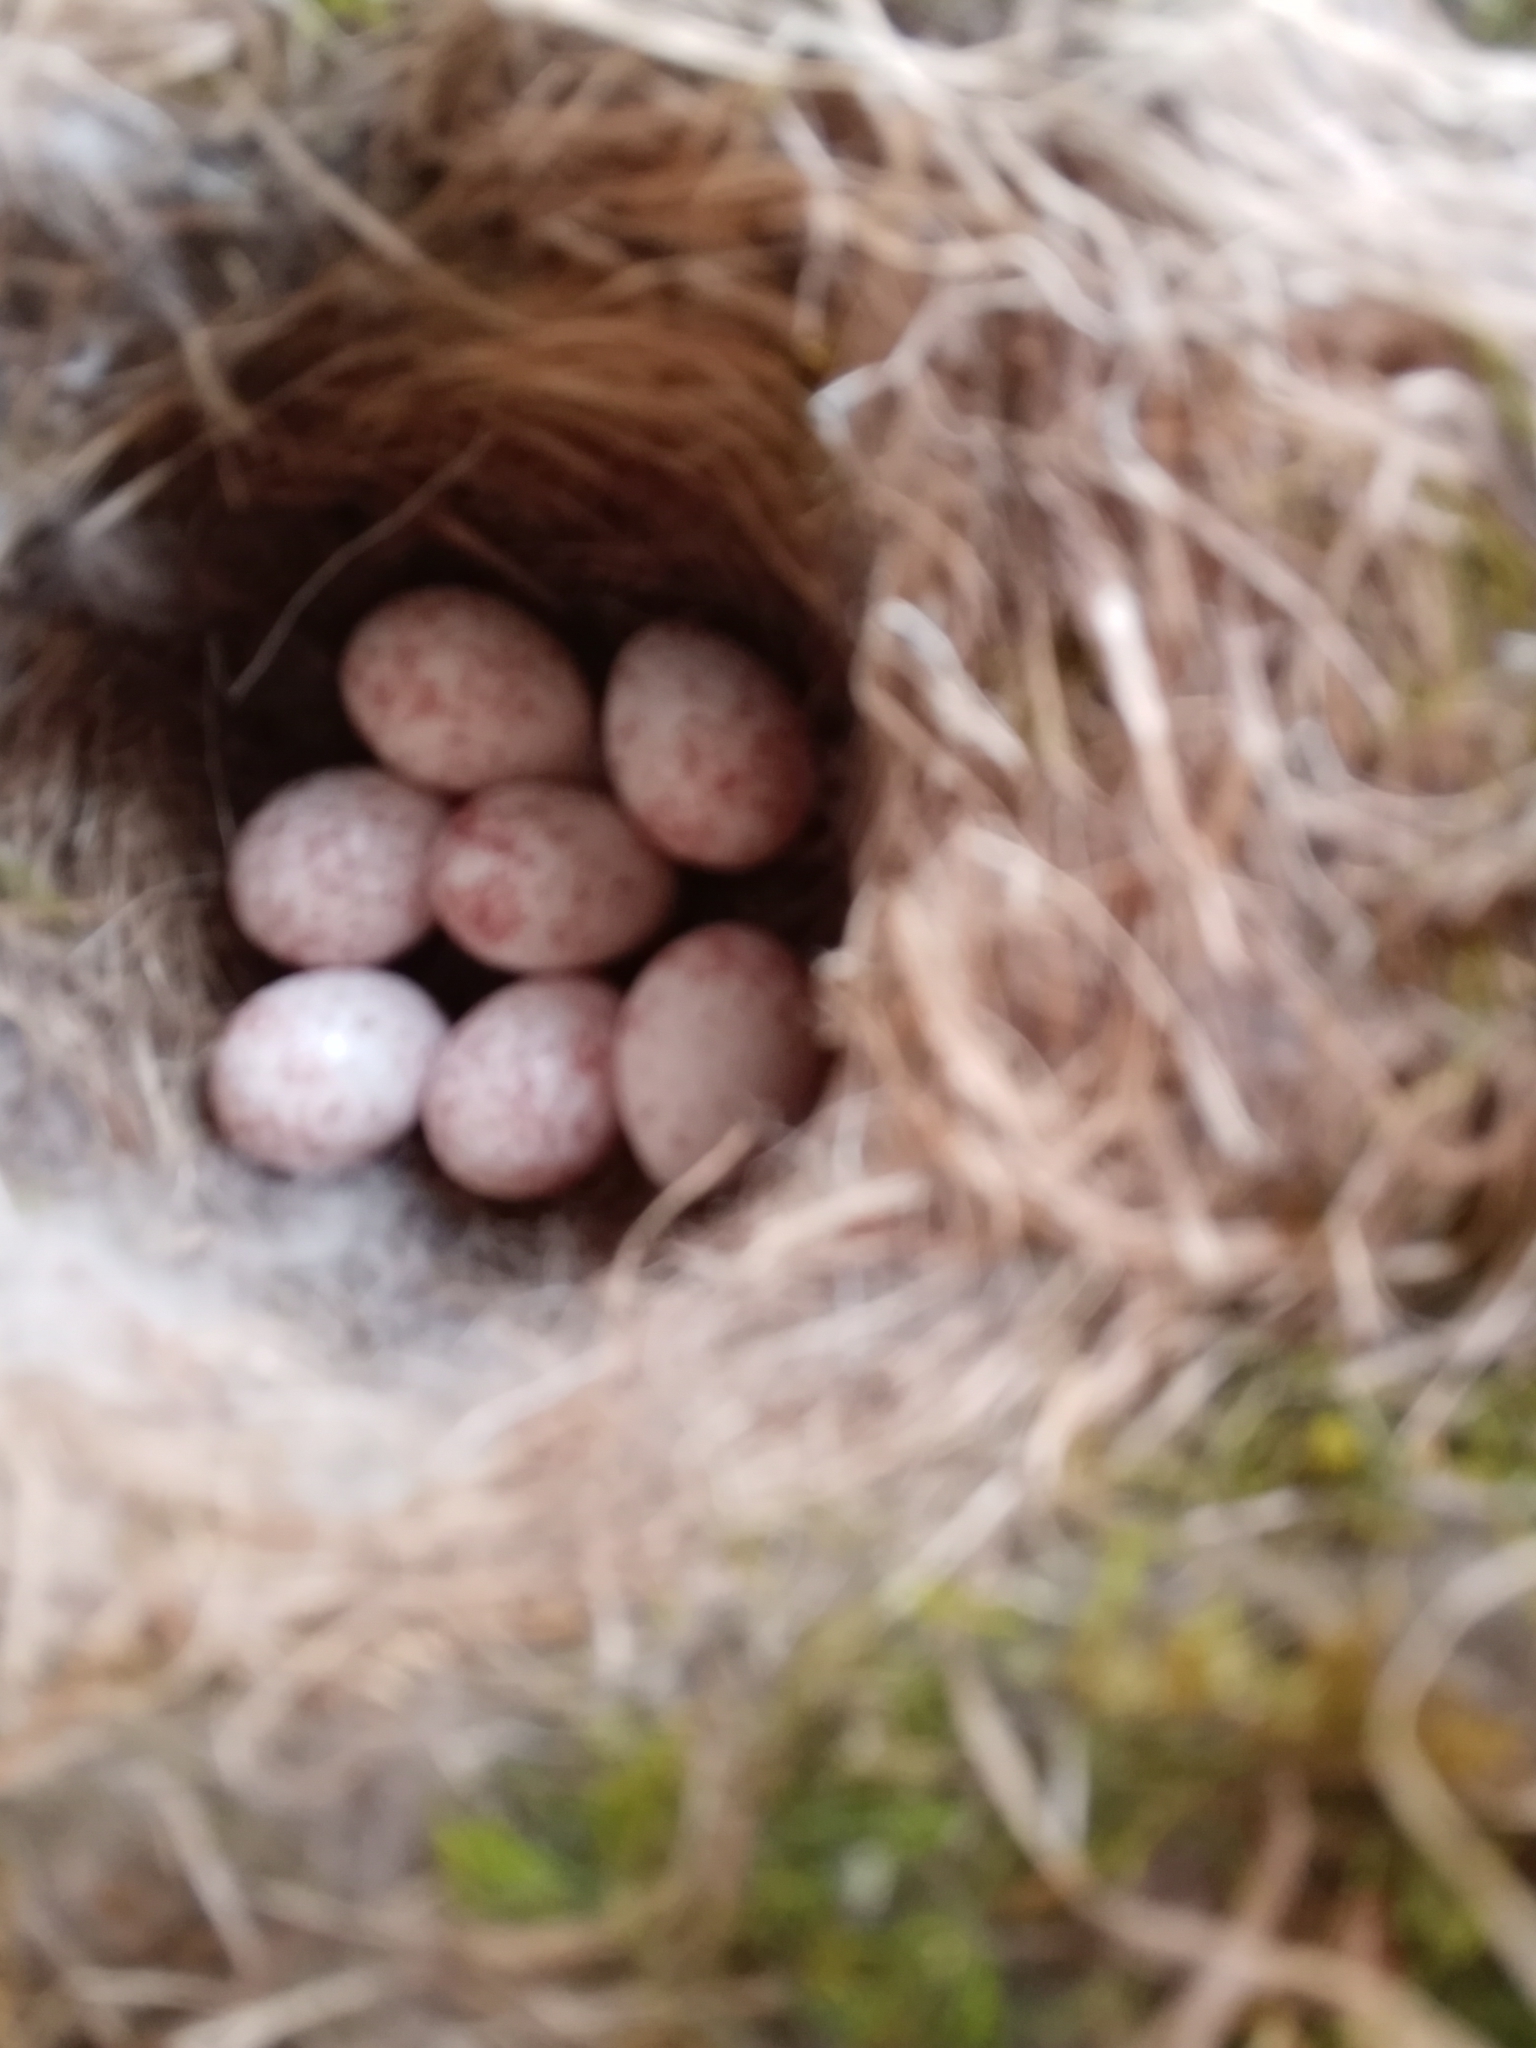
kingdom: Animalia
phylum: Chordata
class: Aves
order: Passeriformes
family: Paridae
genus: Poecile
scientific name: Poecile carolinensis
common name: Carolina chickadee
